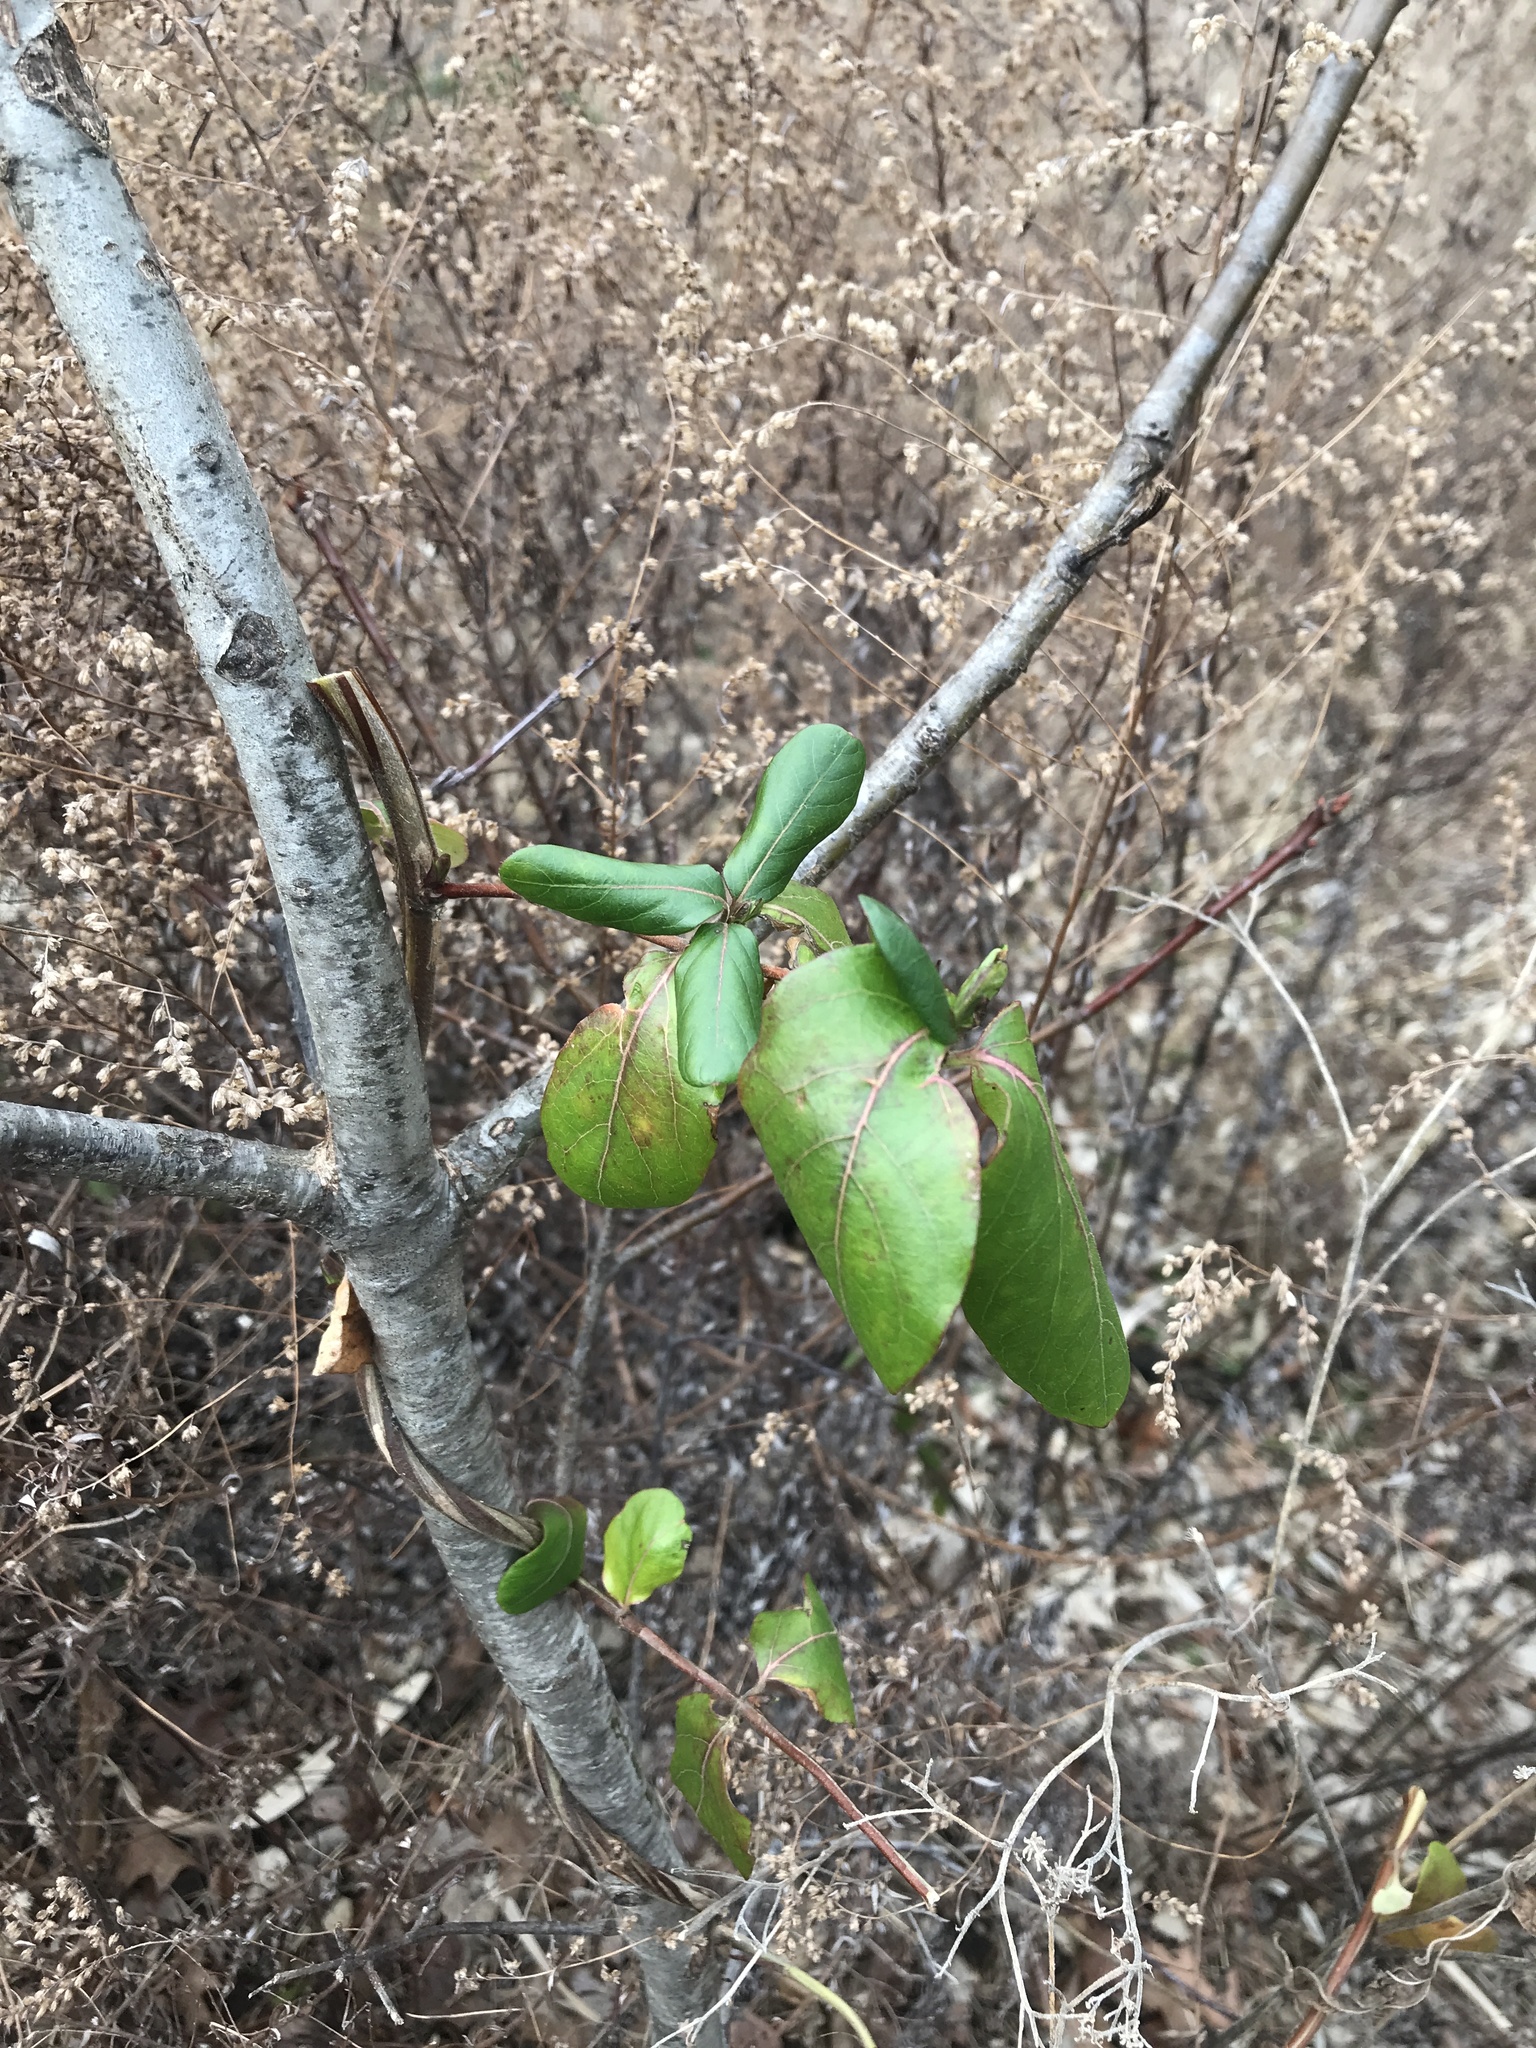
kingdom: Plantae
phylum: Tracheophyta
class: Magnoliopsida
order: Dipsacales
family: Caprifoliaceae
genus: Lonicera
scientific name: Lonicera japonica
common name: Japanese honeysuckle
